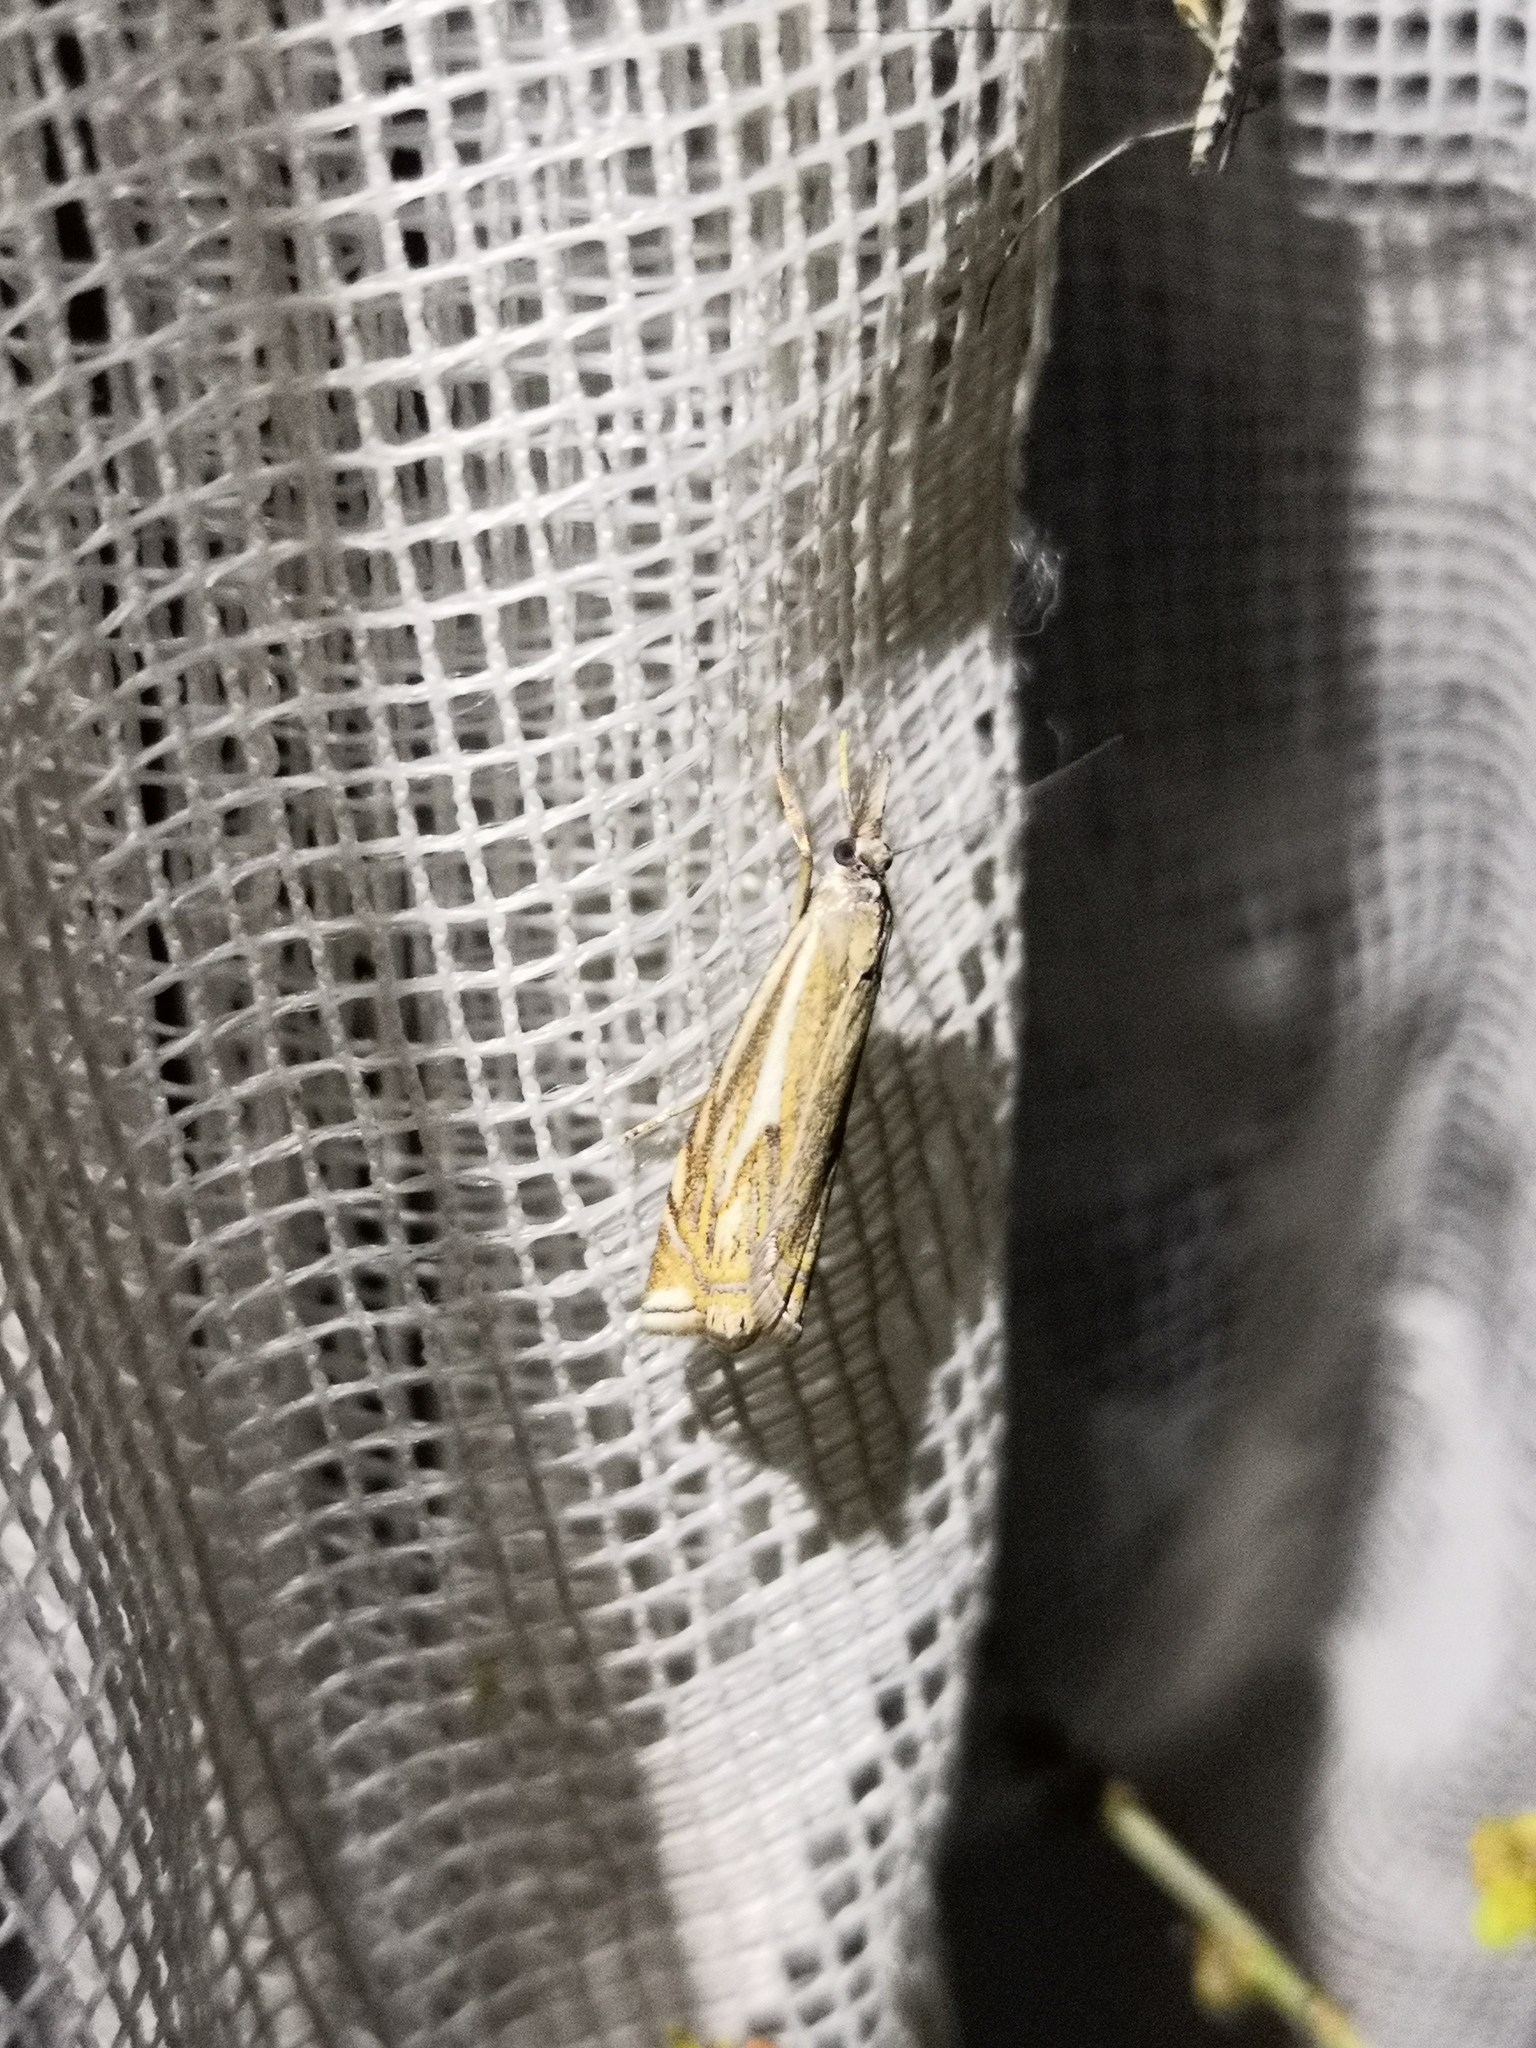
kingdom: Animalia
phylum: Arthropoda
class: Insecta
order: Lepidoptera
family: Crambidae
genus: Crambus
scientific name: Crambus nemorella
